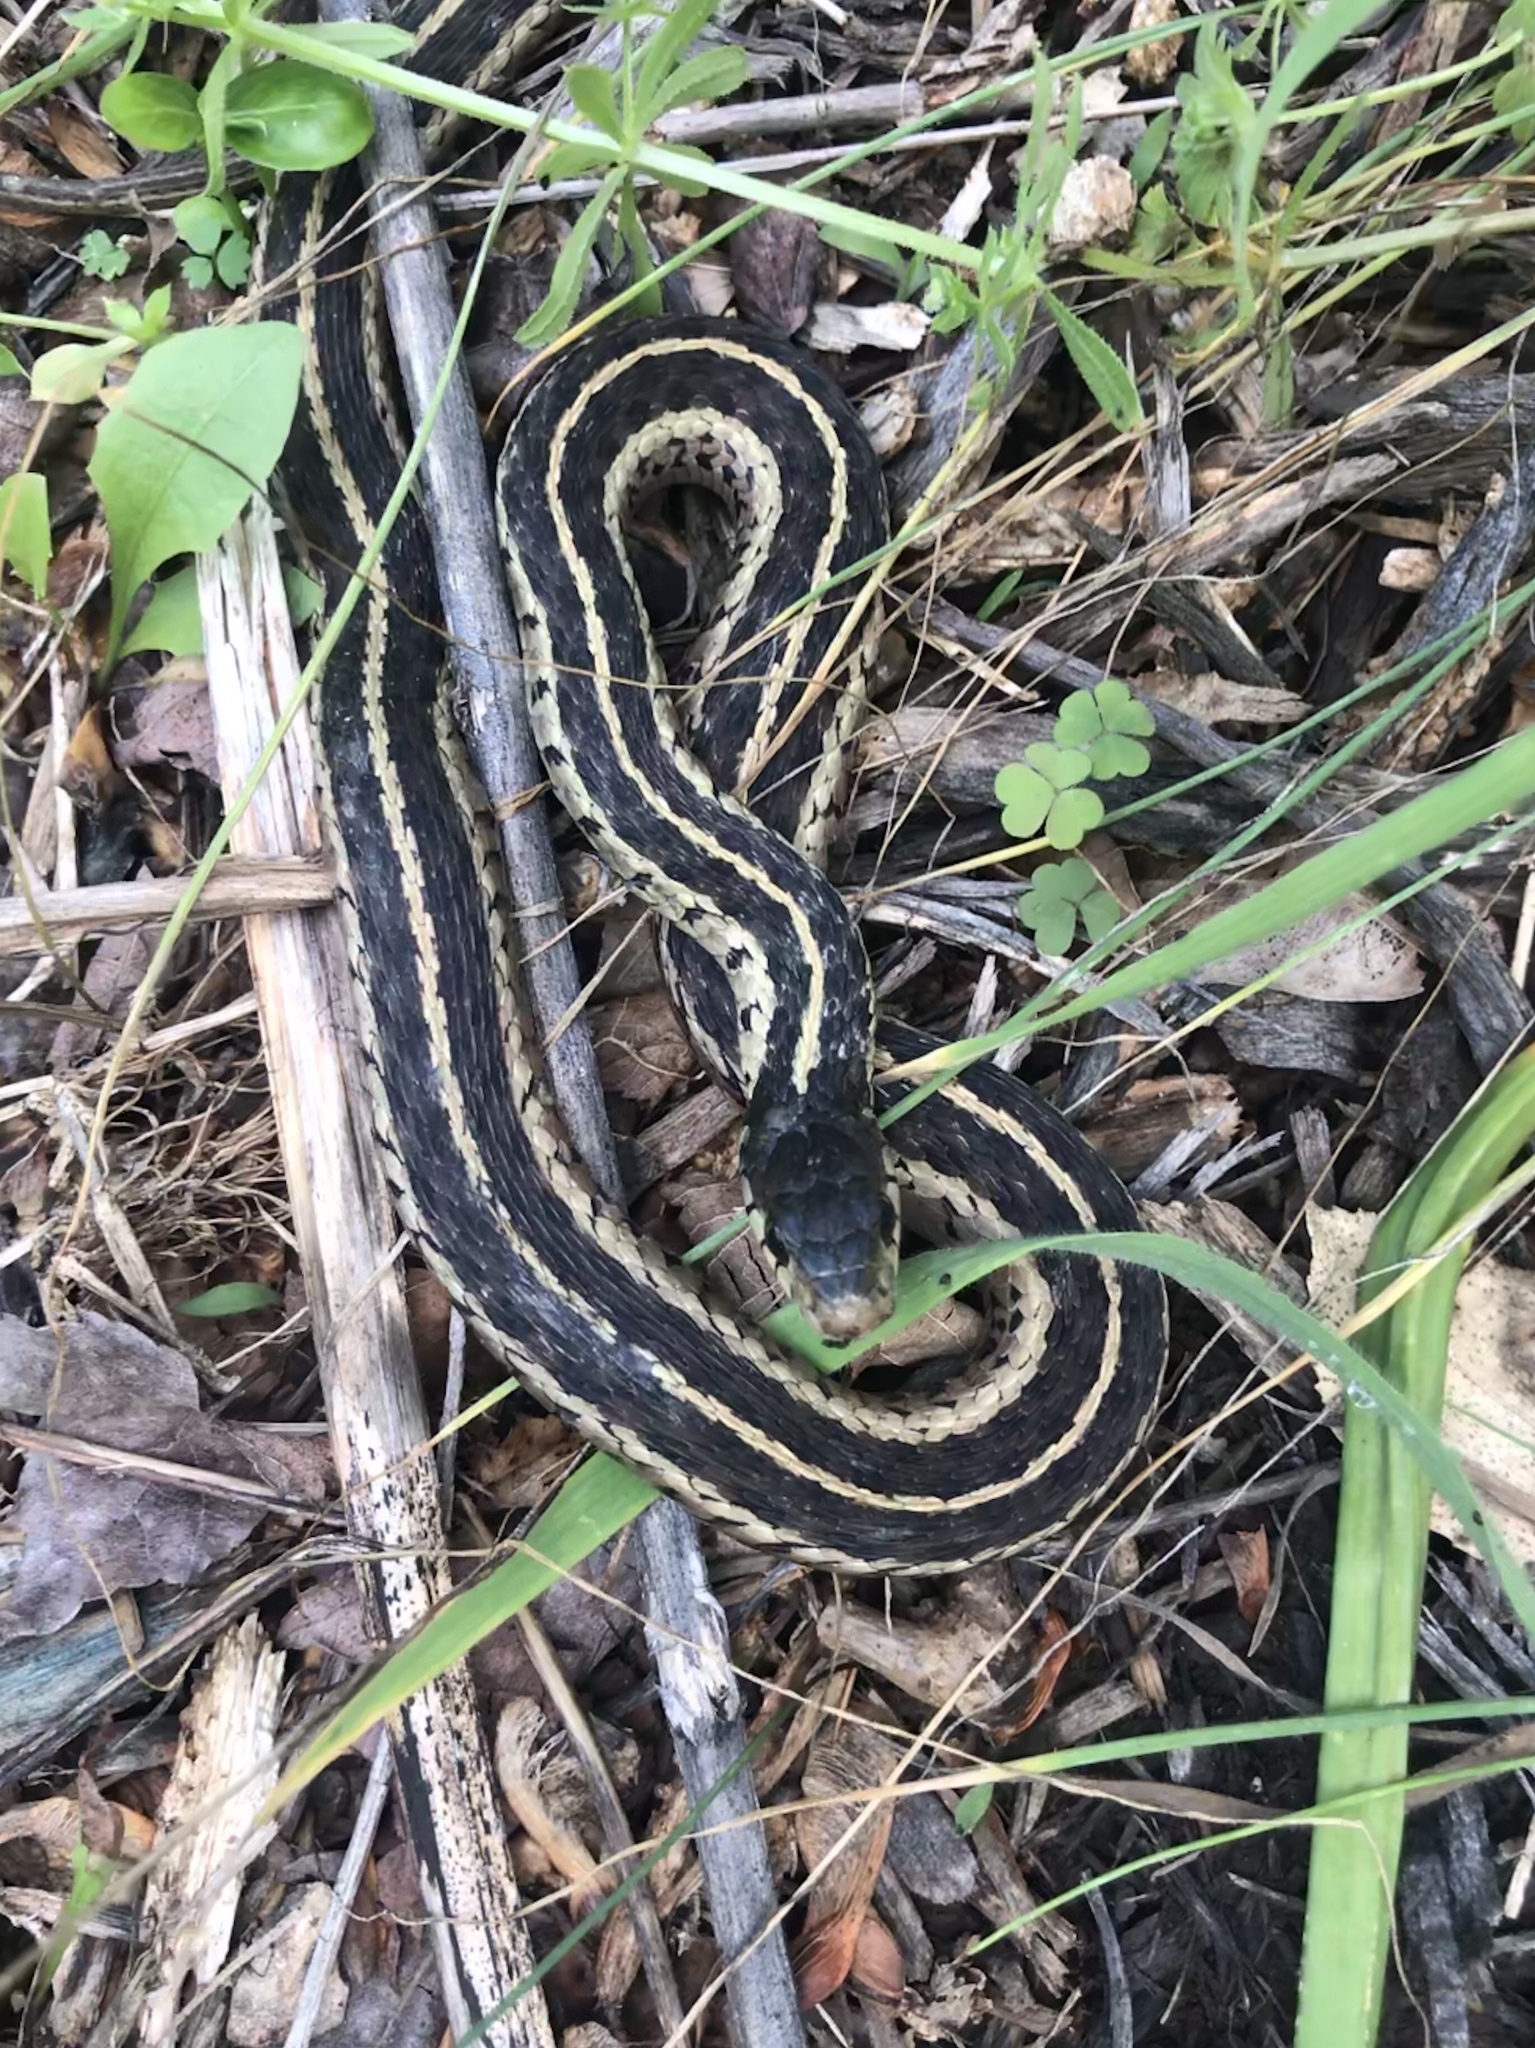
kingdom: Animalia
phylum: Chordata
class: Squamata
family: Colubridae
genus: Thamnophis
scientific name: Thamnophis sirtalis
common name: Common garter snake
